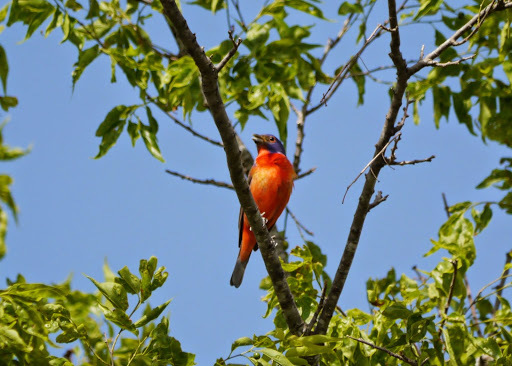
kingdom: Animalia
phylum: Chordata
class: Aves
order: Passeriformes
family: Cardinalidae
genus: Passerina
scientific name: Passerina ciris
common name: Painted bunting
